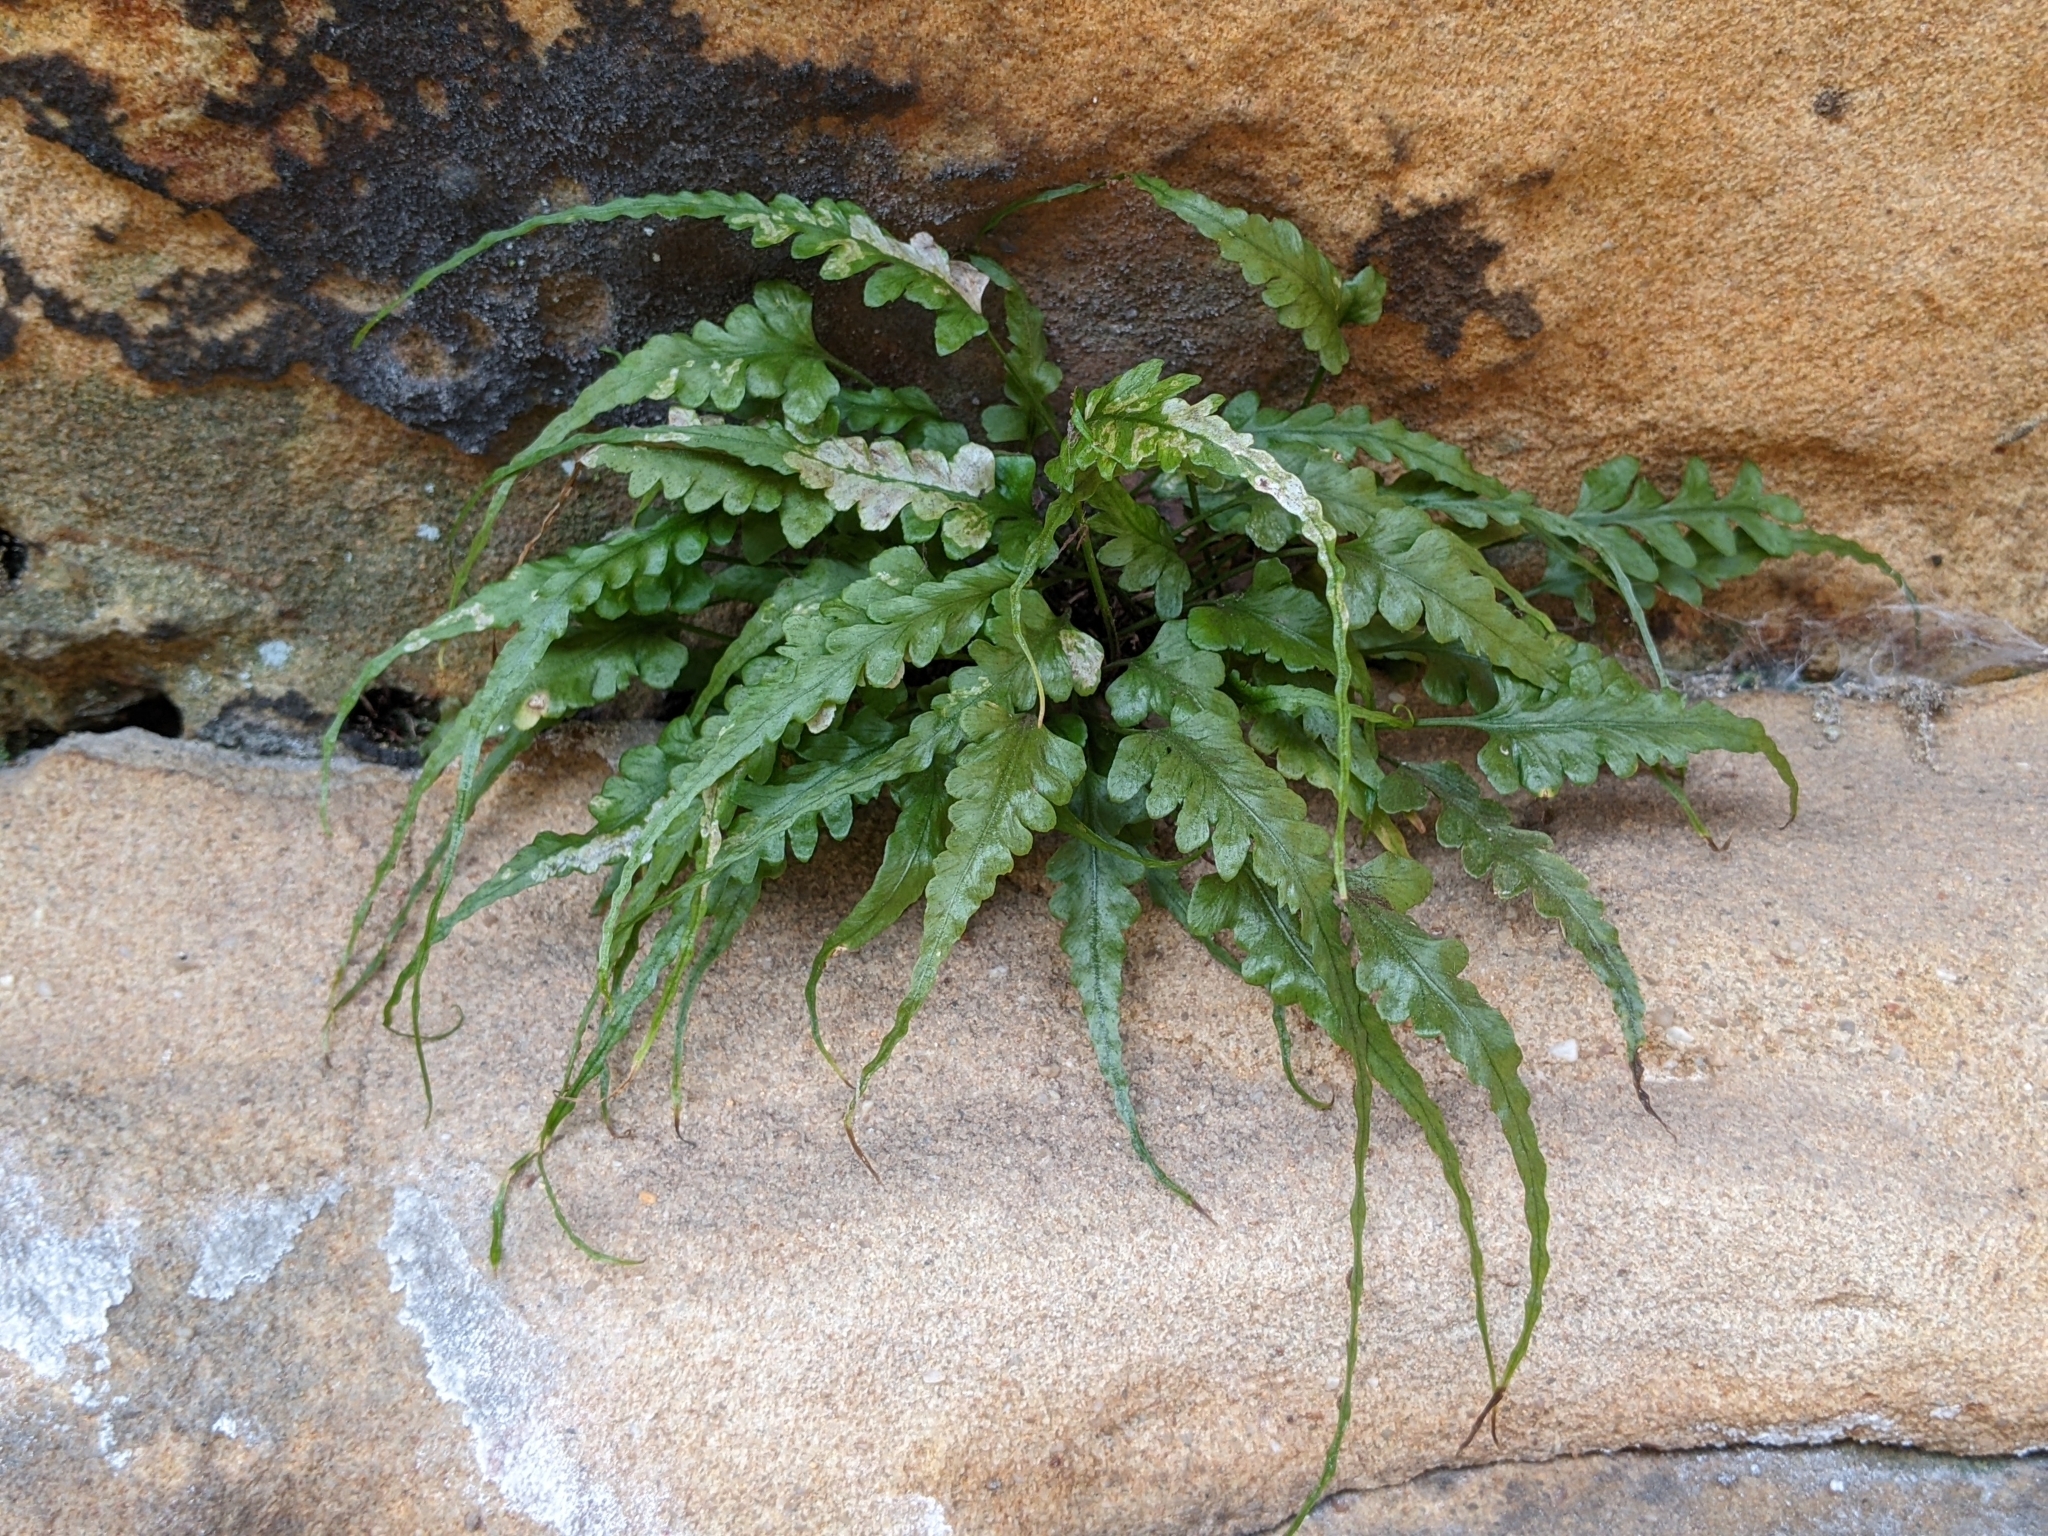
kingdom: Plantae
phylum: Tracheophyta
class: Polypodiopsida
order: Polypodiales
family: Aspleniaceae
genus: Asplenium
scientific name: Asplenium pinnatifidum
